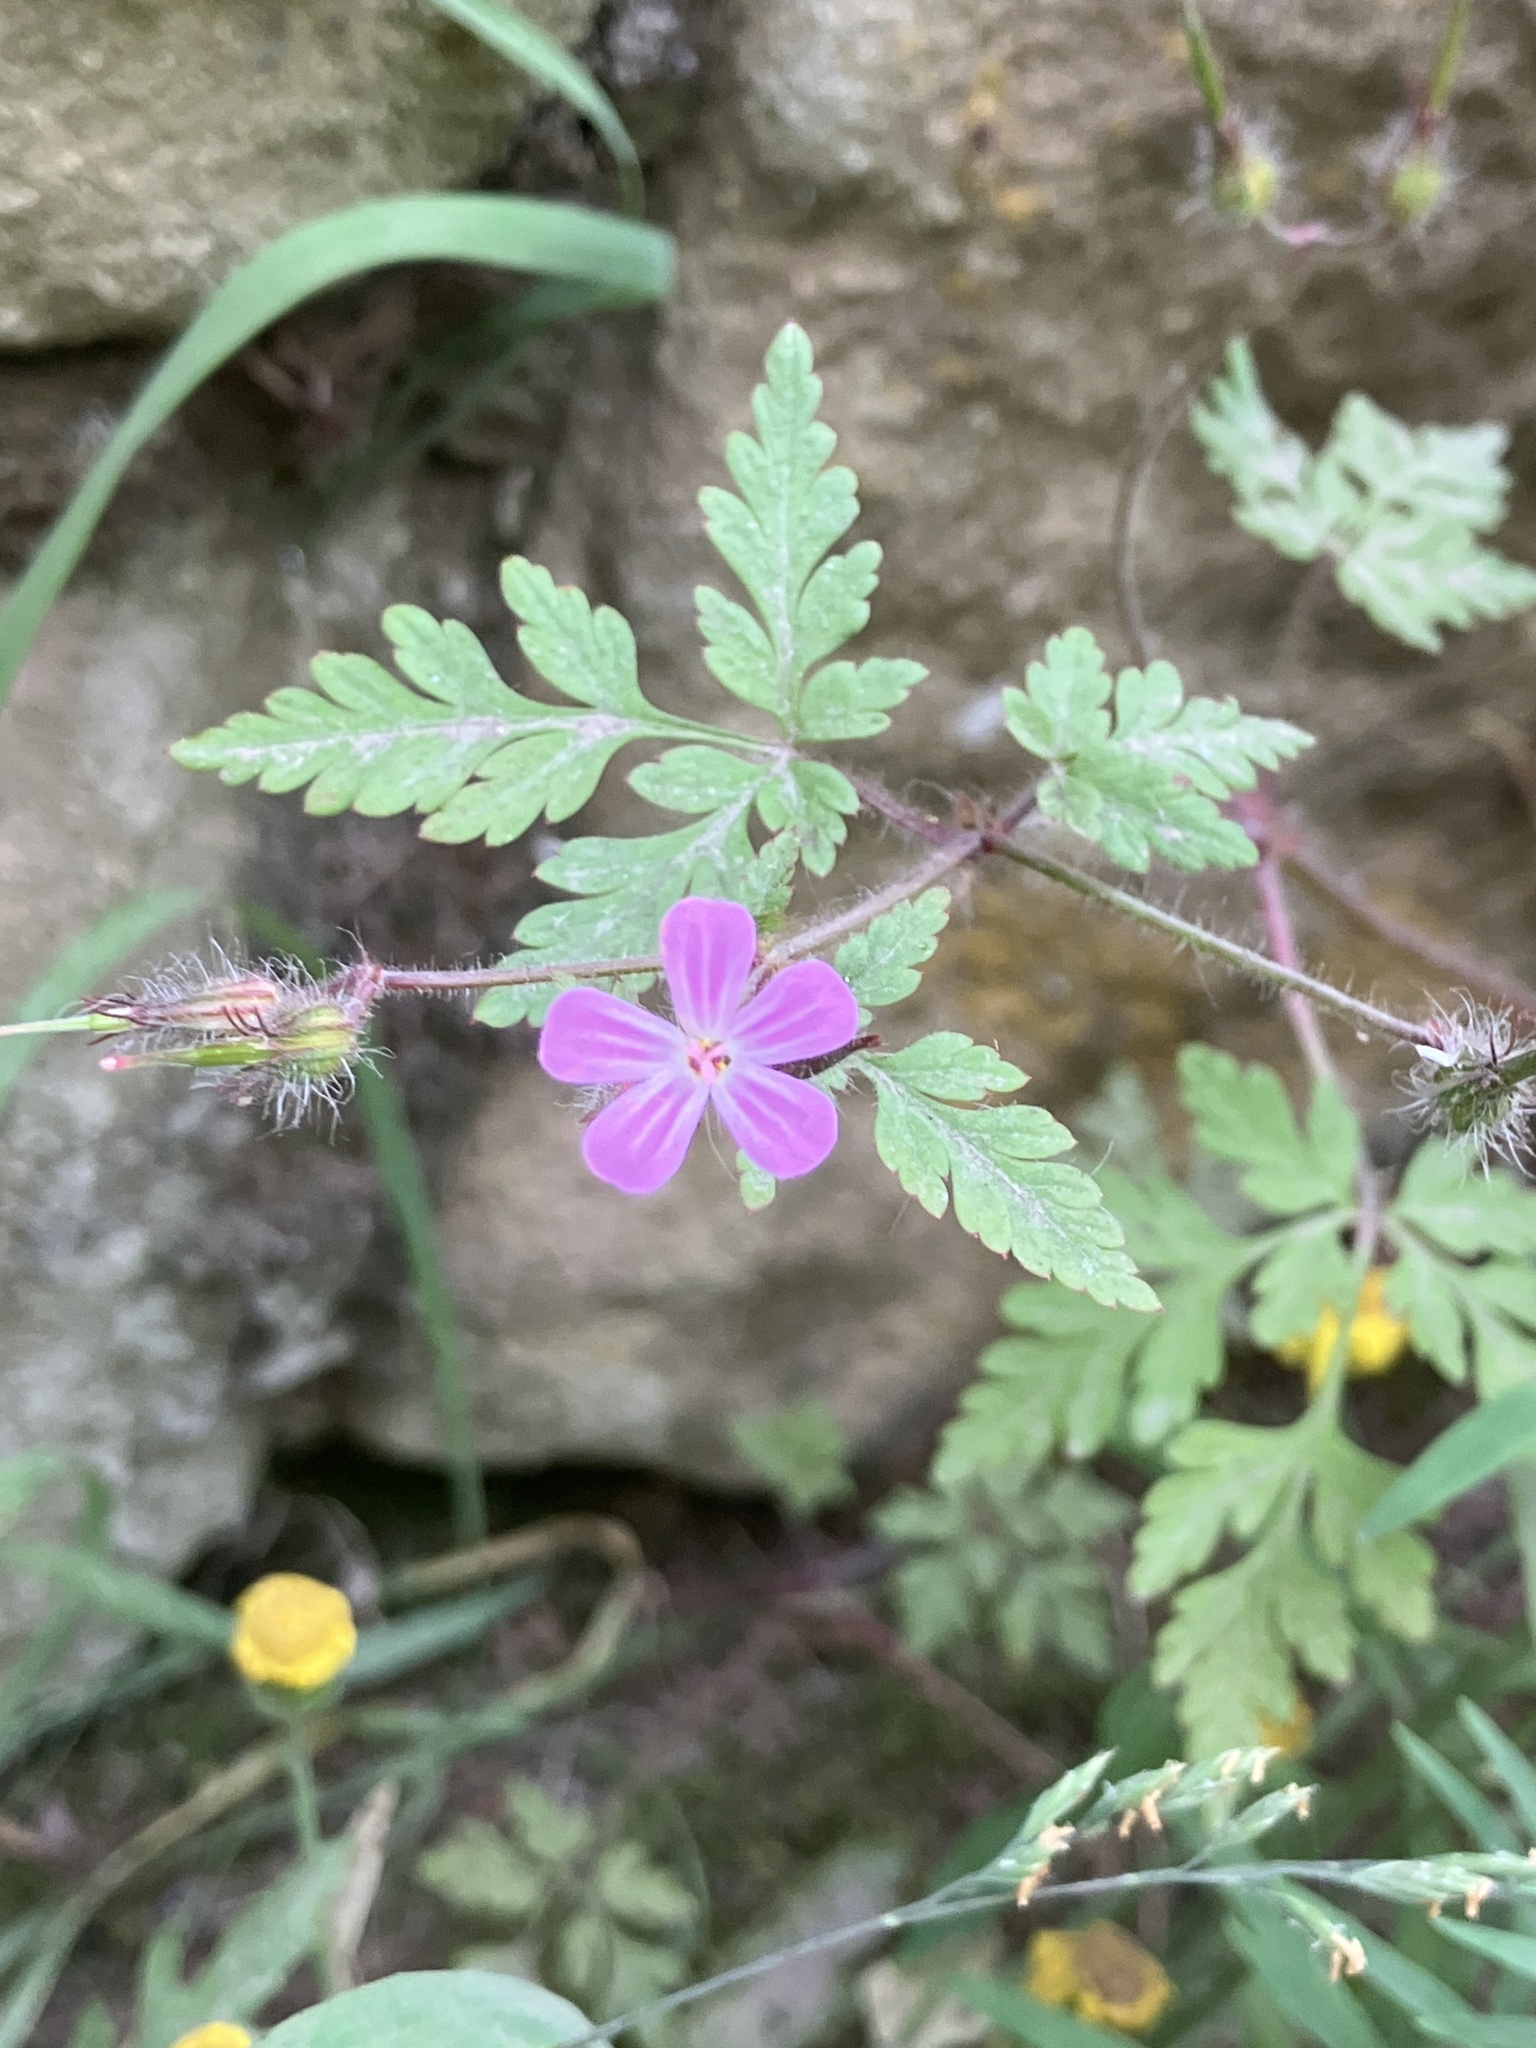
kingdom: Plantae
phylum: Tracheophyta
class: Magnoliopsida
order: Geraniales
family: Geraniaceae
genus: Geranium
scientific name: Geranium robertianum
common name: Herb-robert
